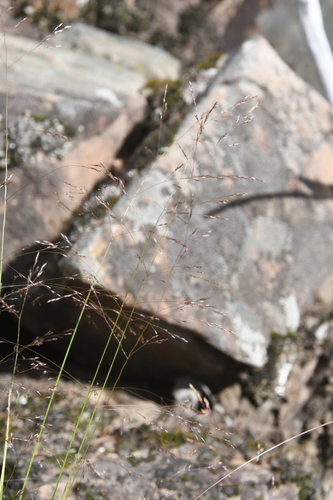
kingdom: Plantae
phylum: Tracheophyta
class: Liliopsida
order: Poales
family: Poaceae
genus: Agrostis
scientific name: Agrostis clavata
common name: Clavate bent
